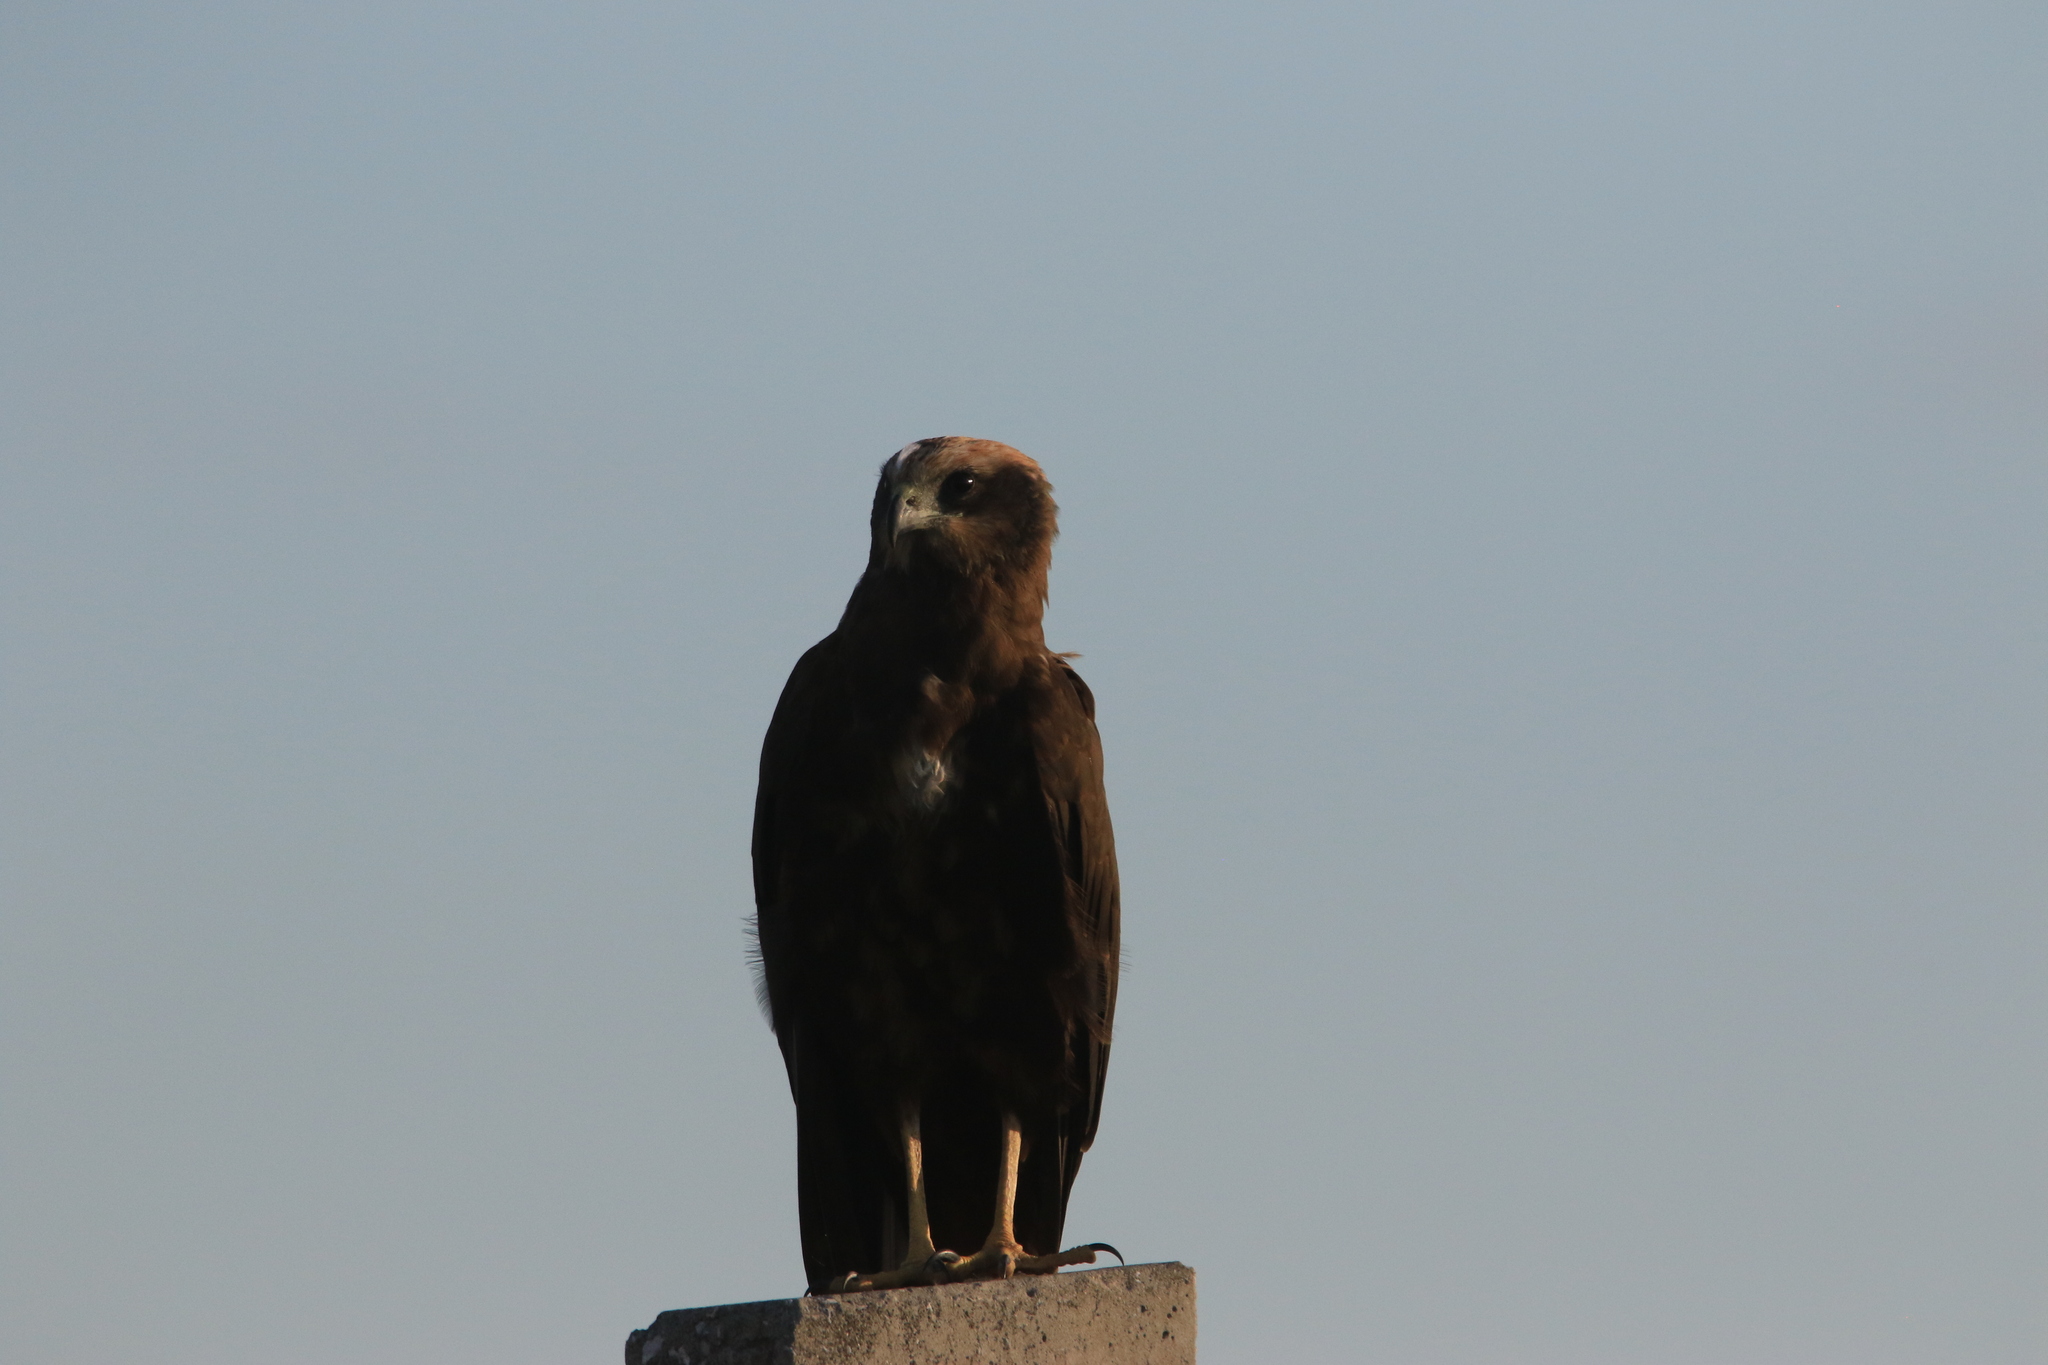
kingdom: Animalia
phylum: Chordata
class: Aves
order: Accipitriformes
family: Accipitridae
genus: Circus
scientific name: Circus aeruginosus
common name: Western marsh harrier
